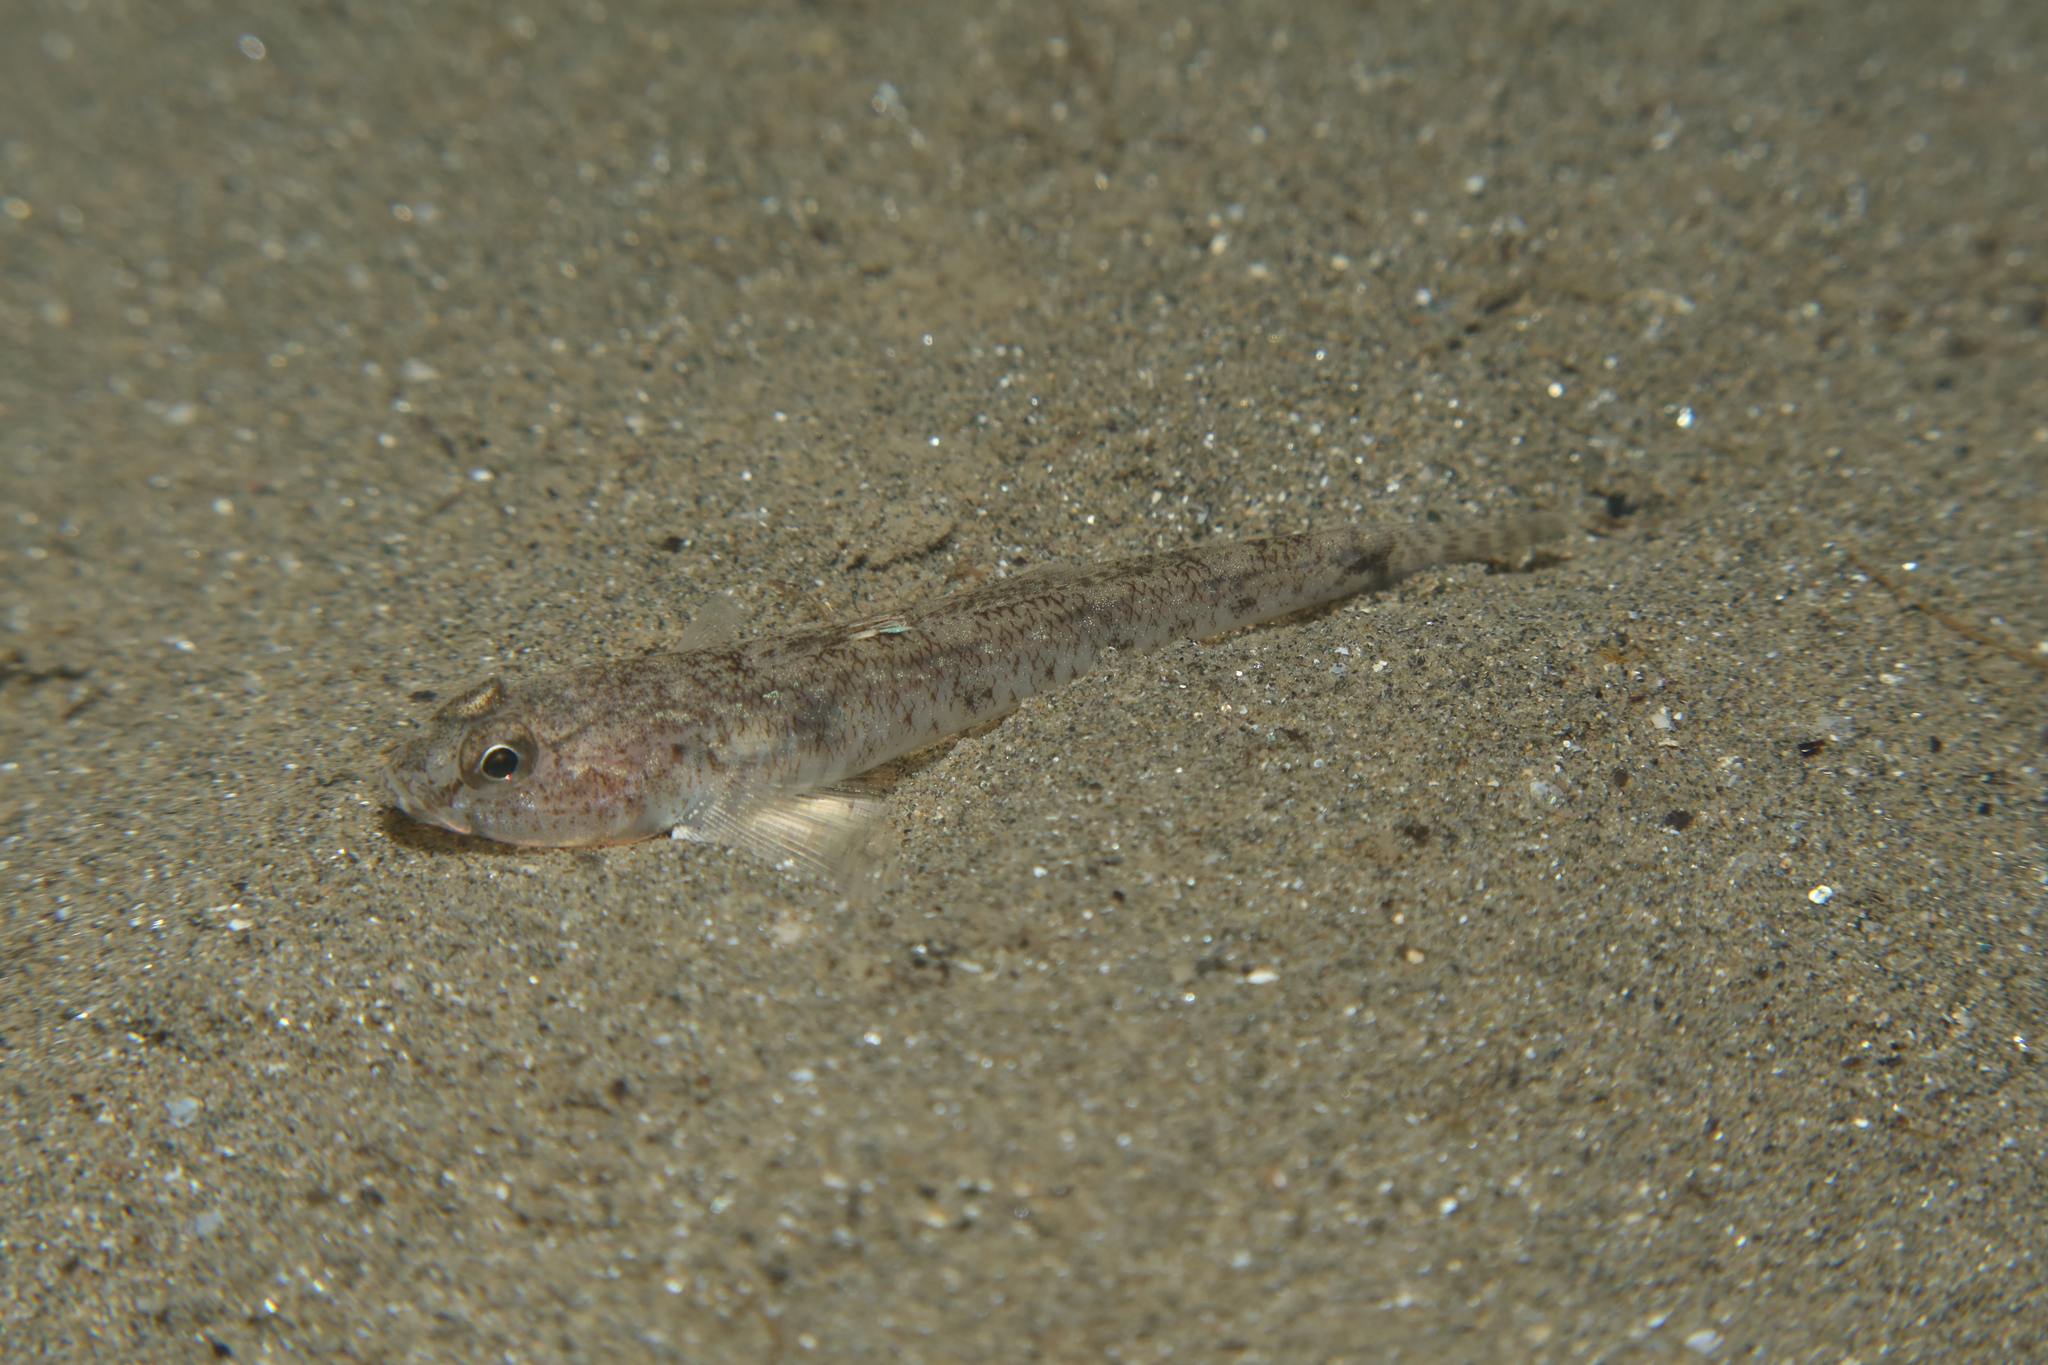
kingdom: Animalia
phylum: Chordata
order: Perciformes
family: Gobiidae
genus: Pomatoschistus
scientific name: Pomatoschistus minutus
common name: Sand goby
